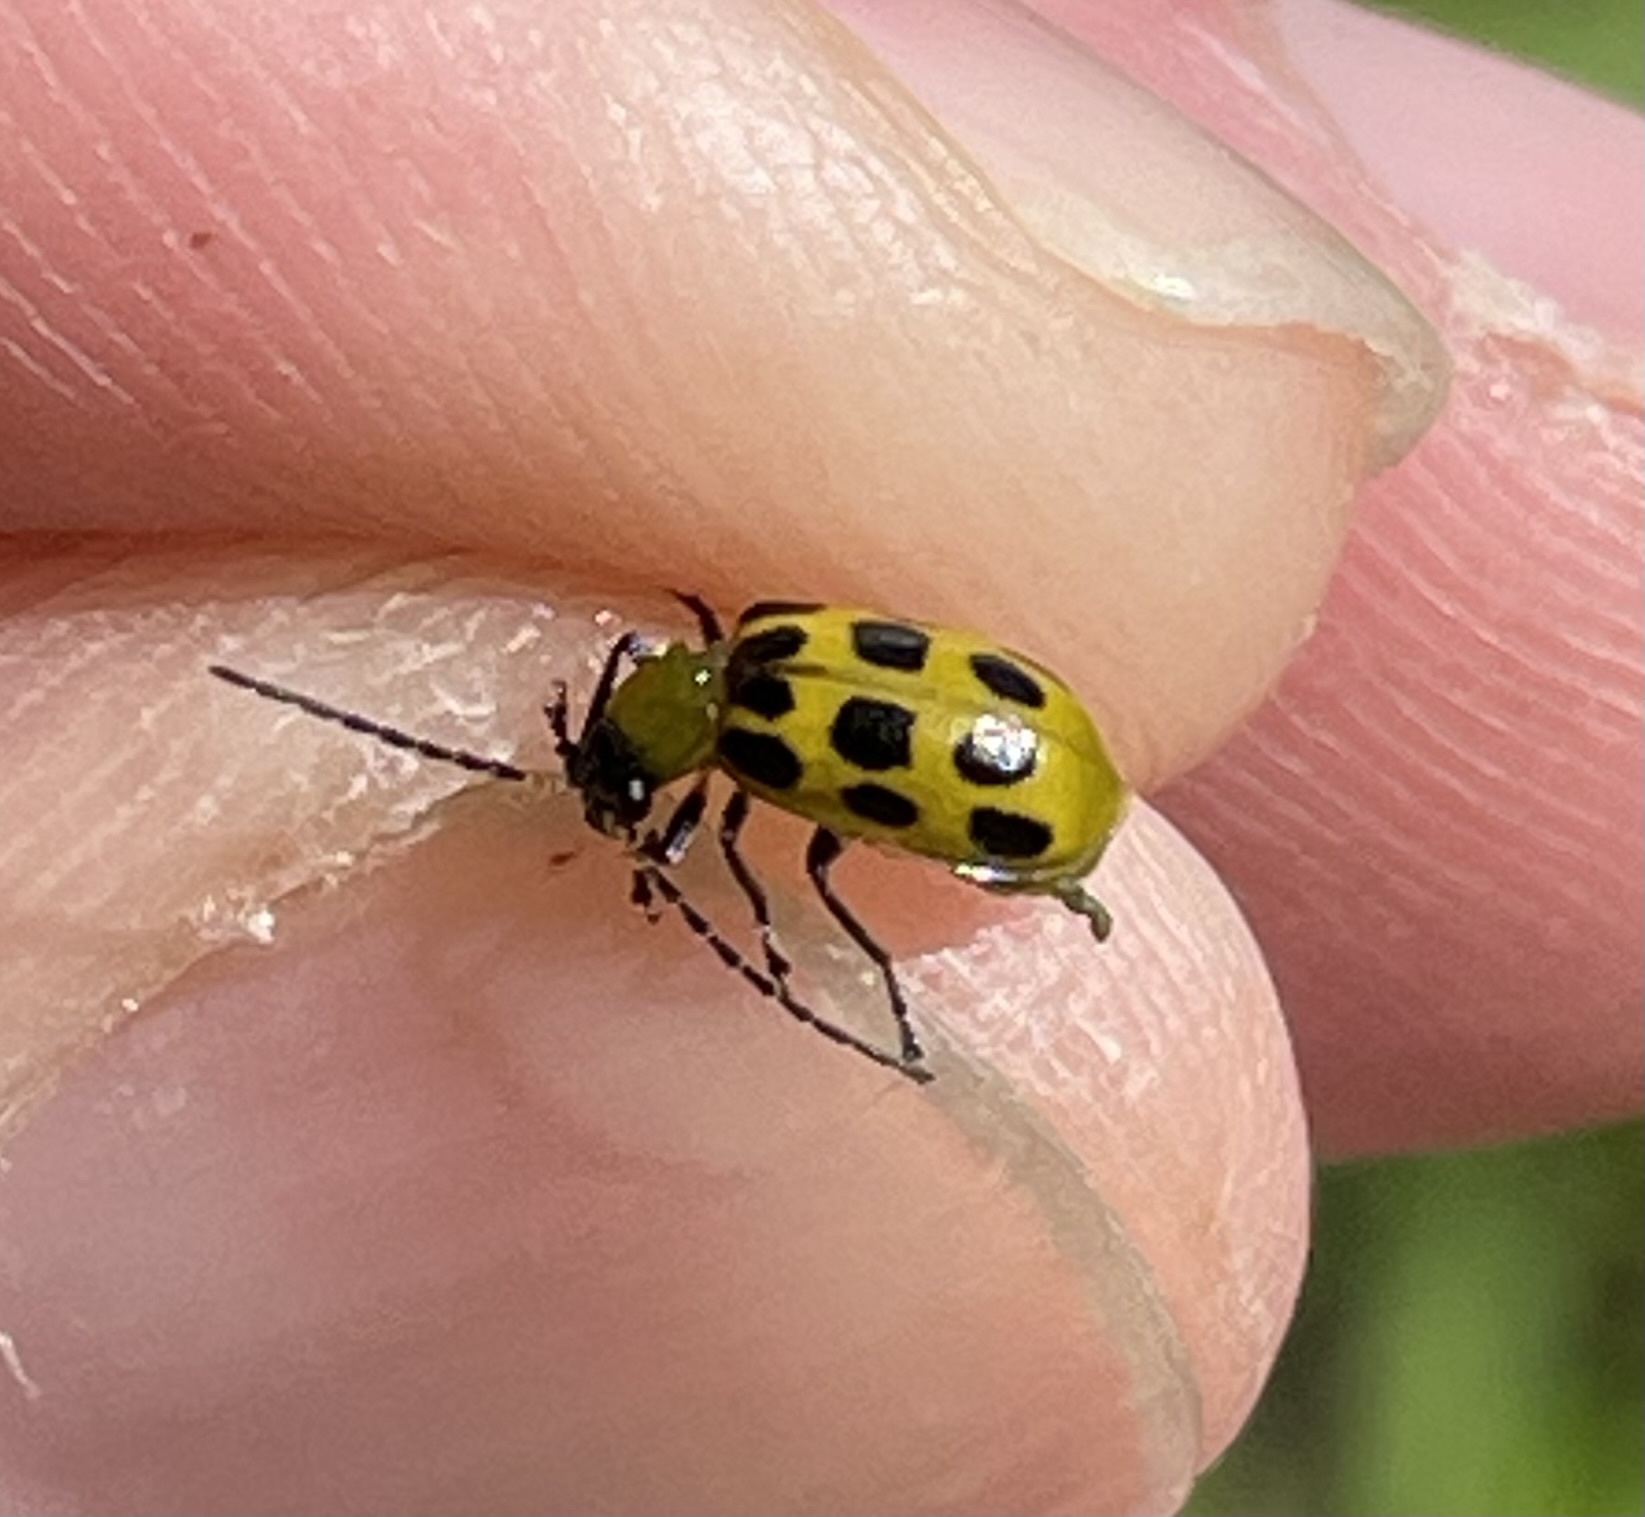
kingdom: Animalia
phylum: Arthropoda
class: Insecta
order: Coleoptera
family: Chrysomelidae
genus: Diabrotica
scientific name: Diabrotica undecimpunctata
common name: Spotted cucumber beetle
